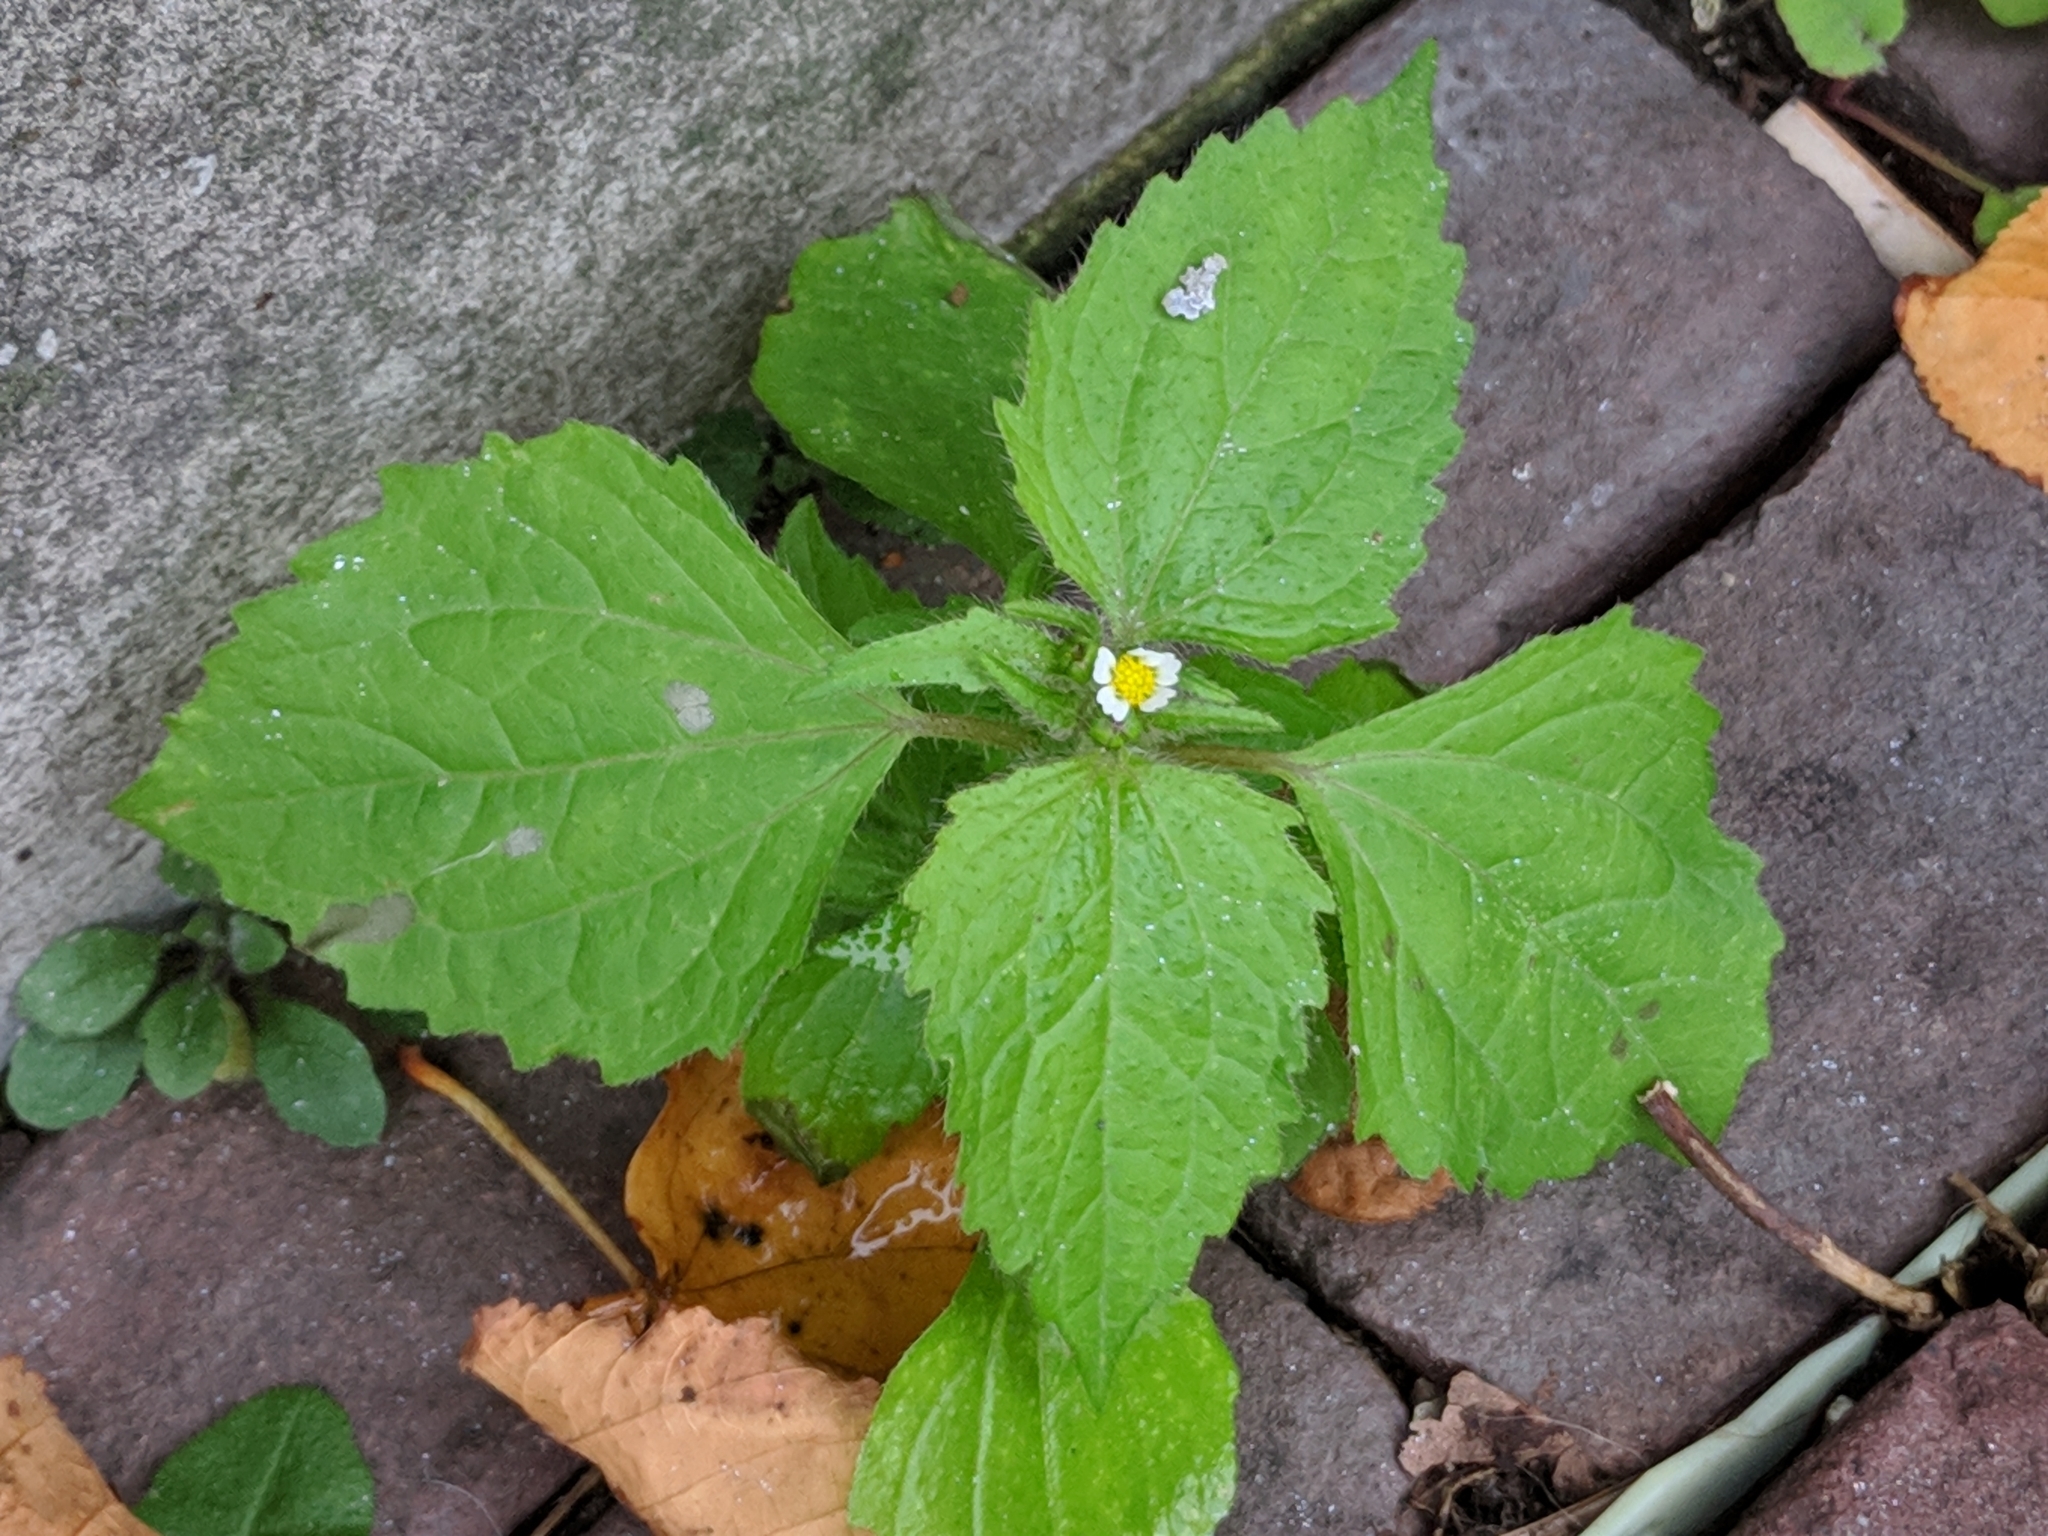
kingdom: Plantae
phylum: Tracheophyta
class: Magnoliopsida
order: Asterales
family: Asteraceae
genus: Galinsoga
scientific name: Galinsoga quadriradiata
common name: Shaggy soldier
